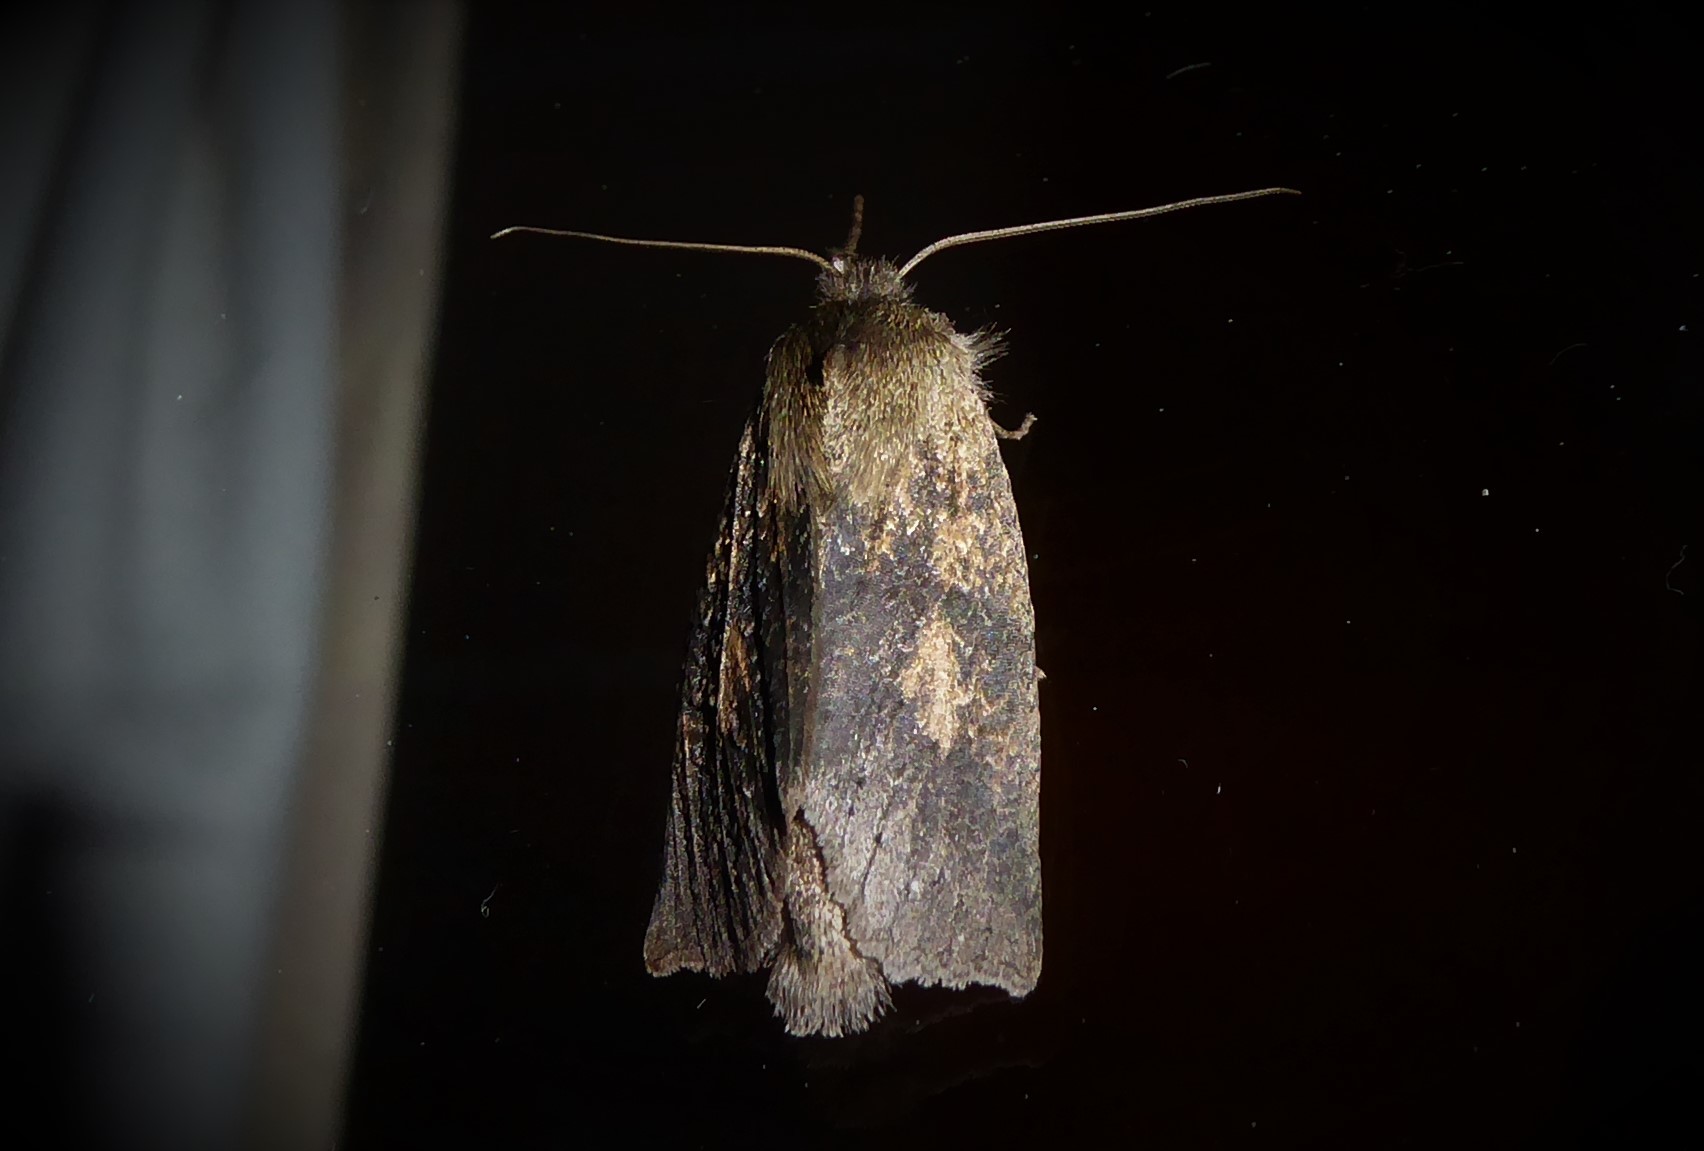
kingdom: Animalia
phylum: Arthropoda
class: Insecta
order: Lepidoptera
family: Geometridae
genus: Declana
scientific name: Declana leptomera
